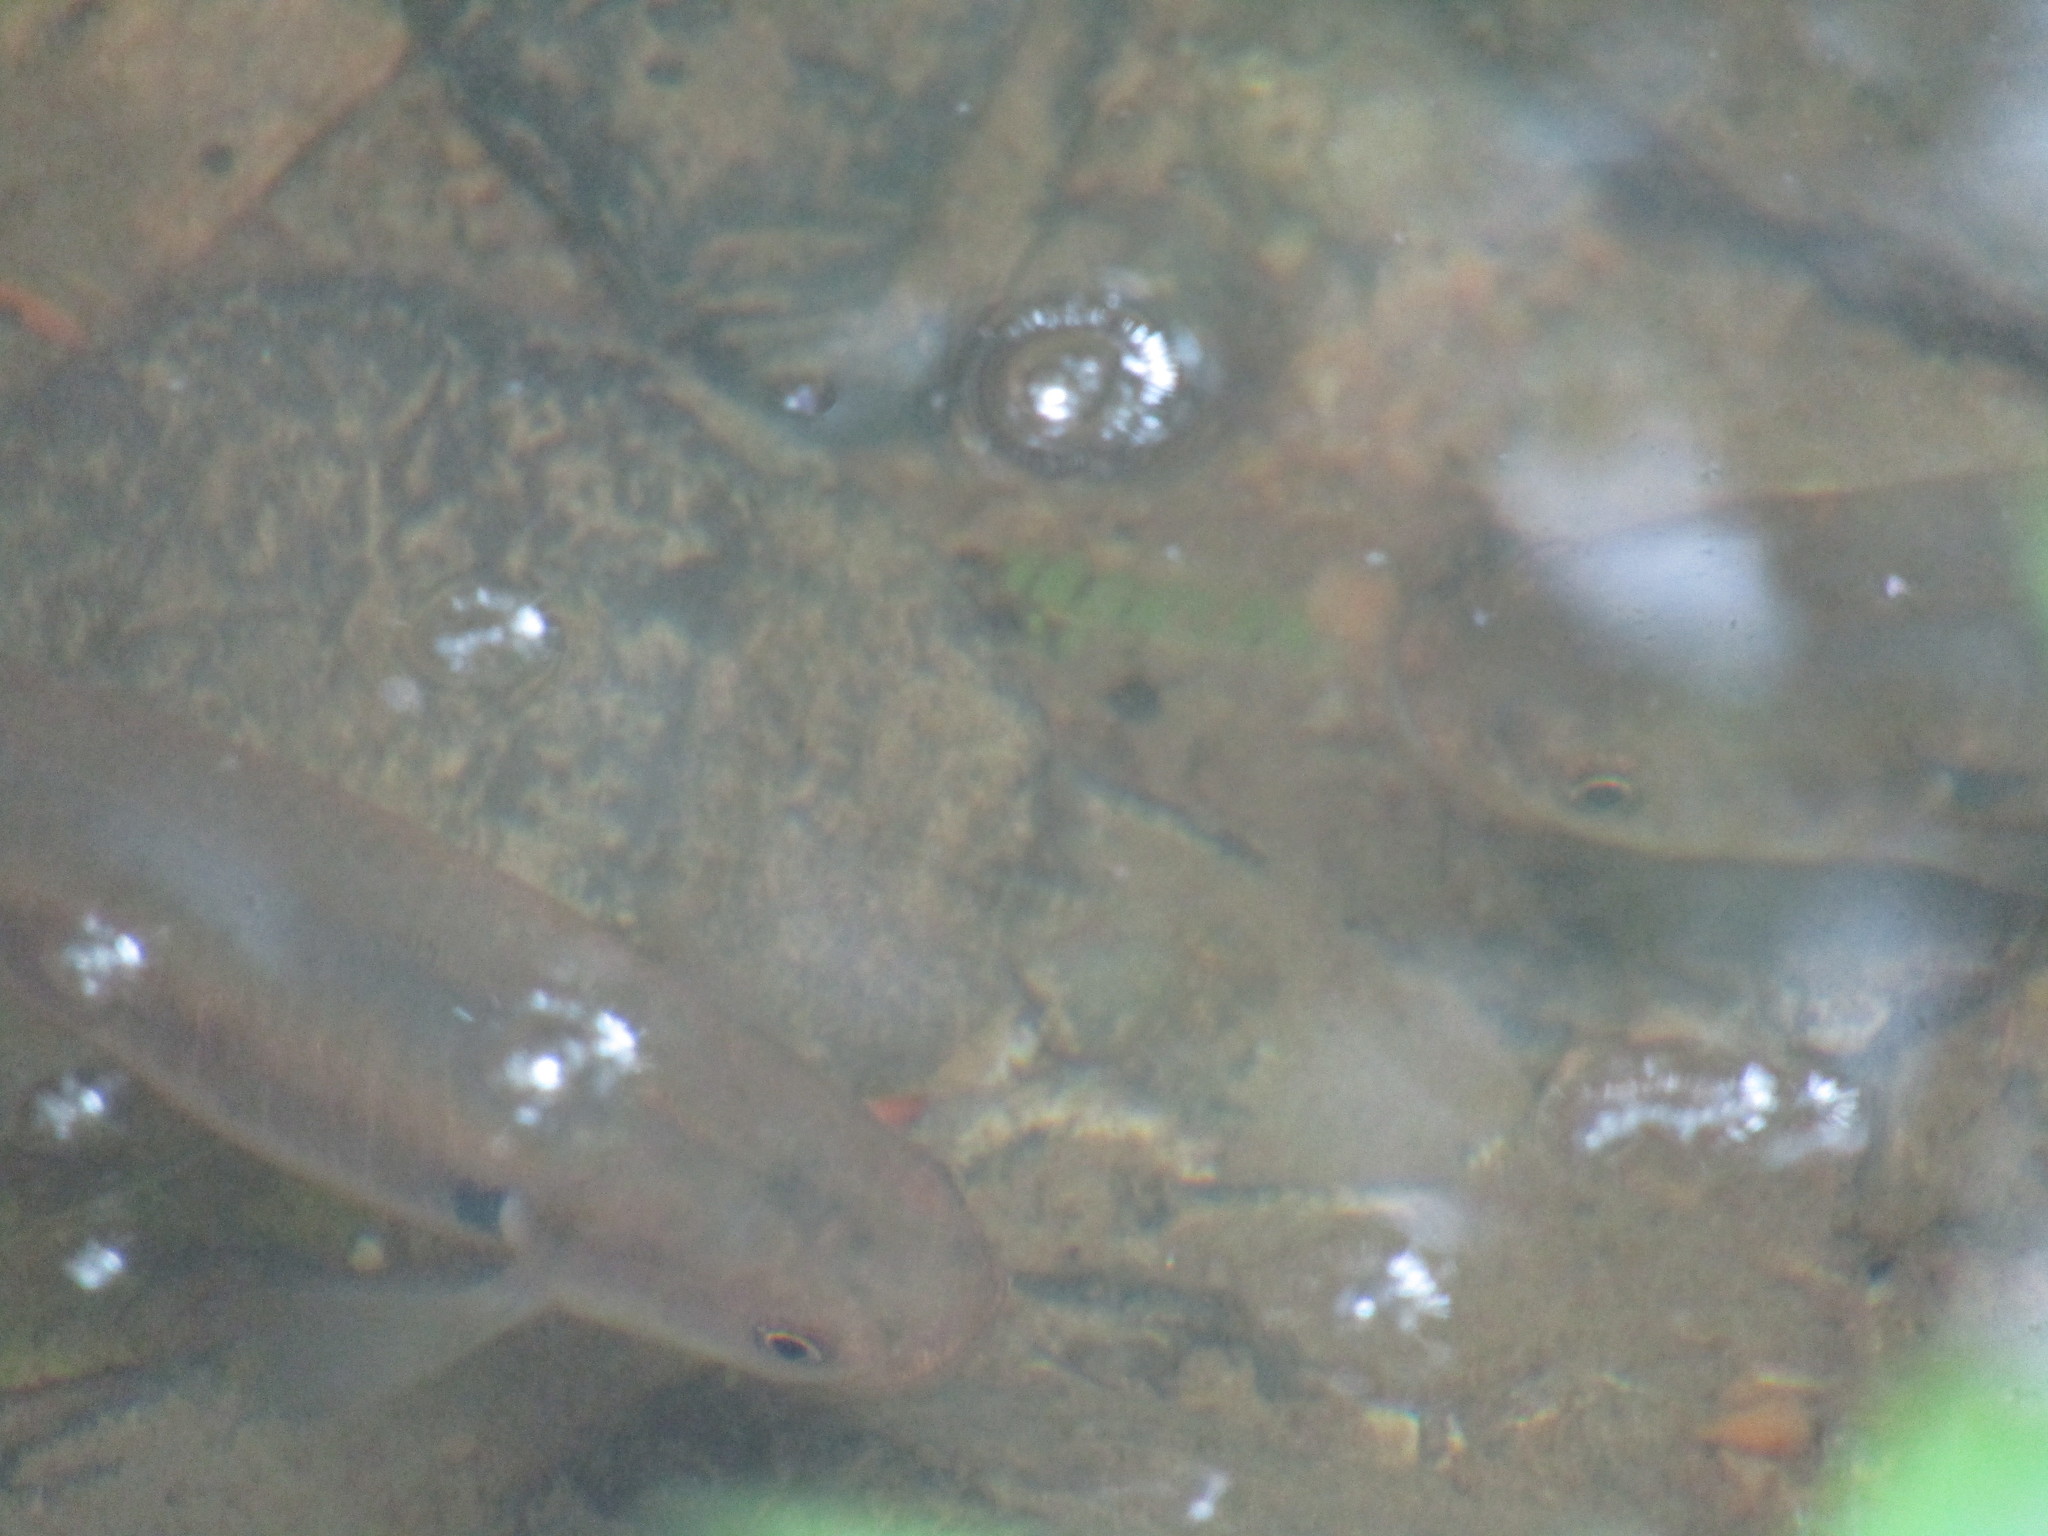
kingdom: Animalia
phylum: Chordata
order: Osmeriformes
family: Galaxiidae
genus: Galaxias
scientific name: Galaxias fasciatus
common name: Banded kokopu
